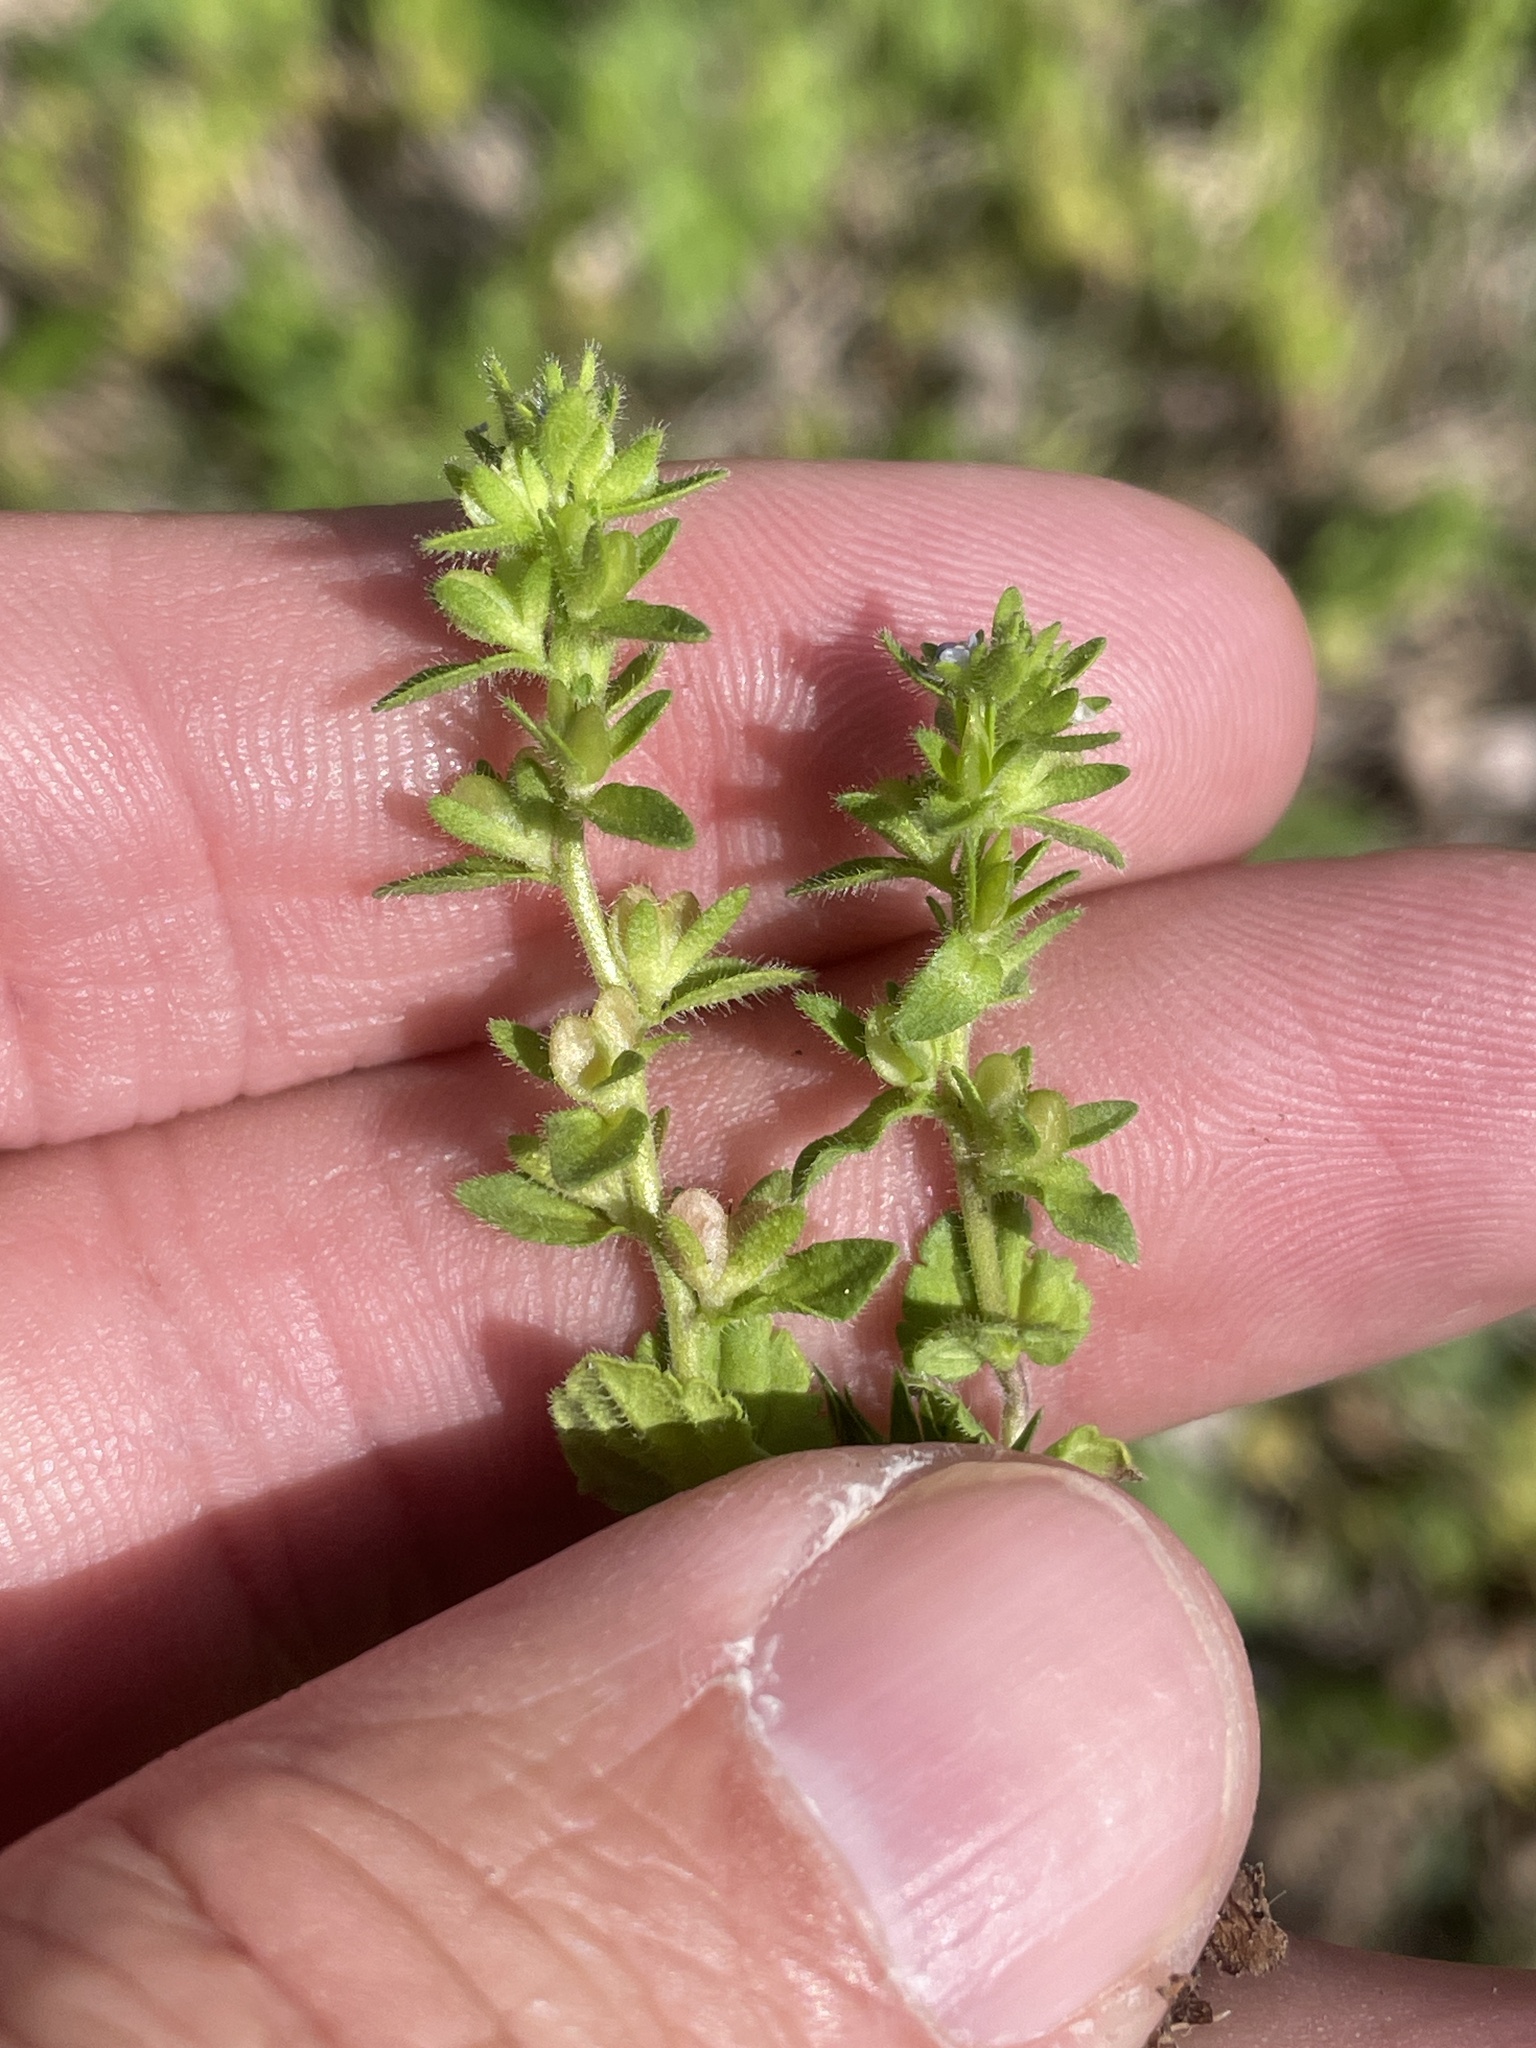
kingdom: Plantae
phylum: Tracheophyta
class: Magnoliopsida
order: Lamiales
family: Plantaginaceae
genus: Veronica
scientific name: Veronica arvensis
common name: Corn speedwell
